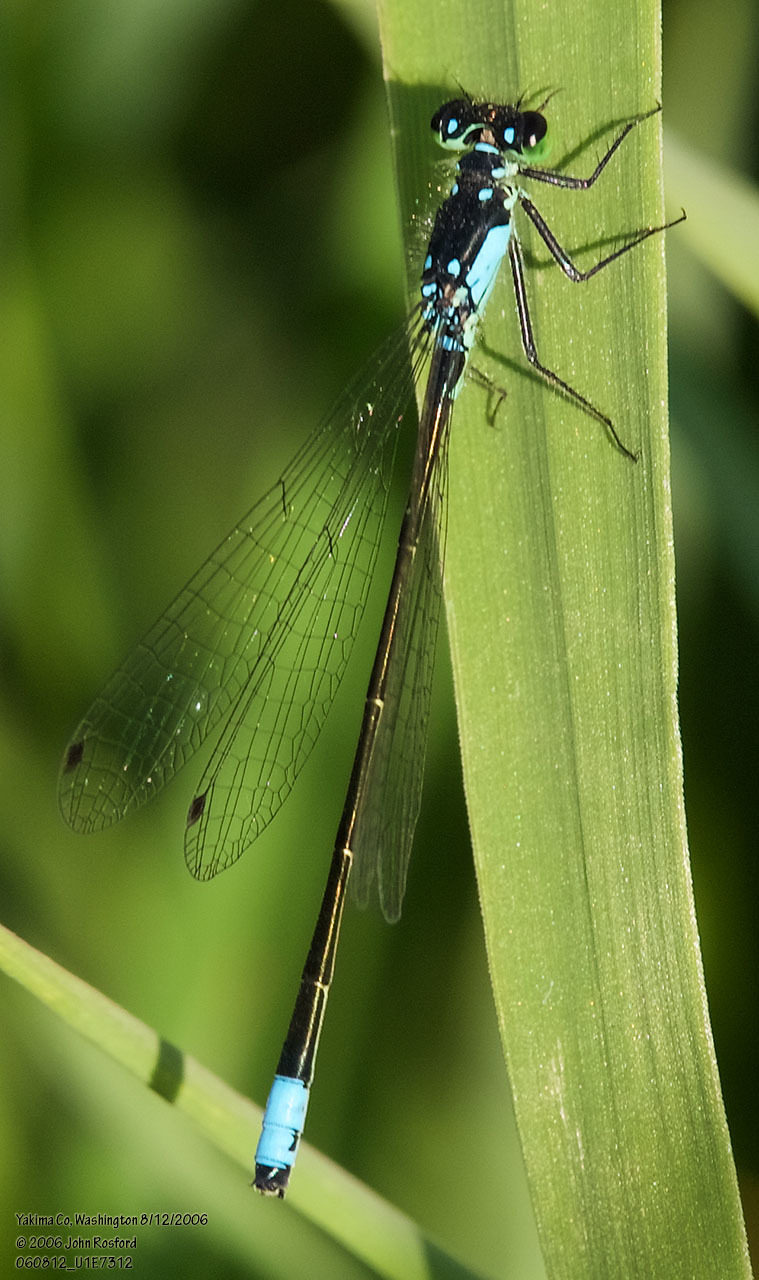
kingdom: Animalia
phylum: Arthropoda
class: Insecta
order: Odonata
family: Coenagrionidae
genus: Ischnura
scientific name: Ischnura cervula
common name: Pacific forktail
